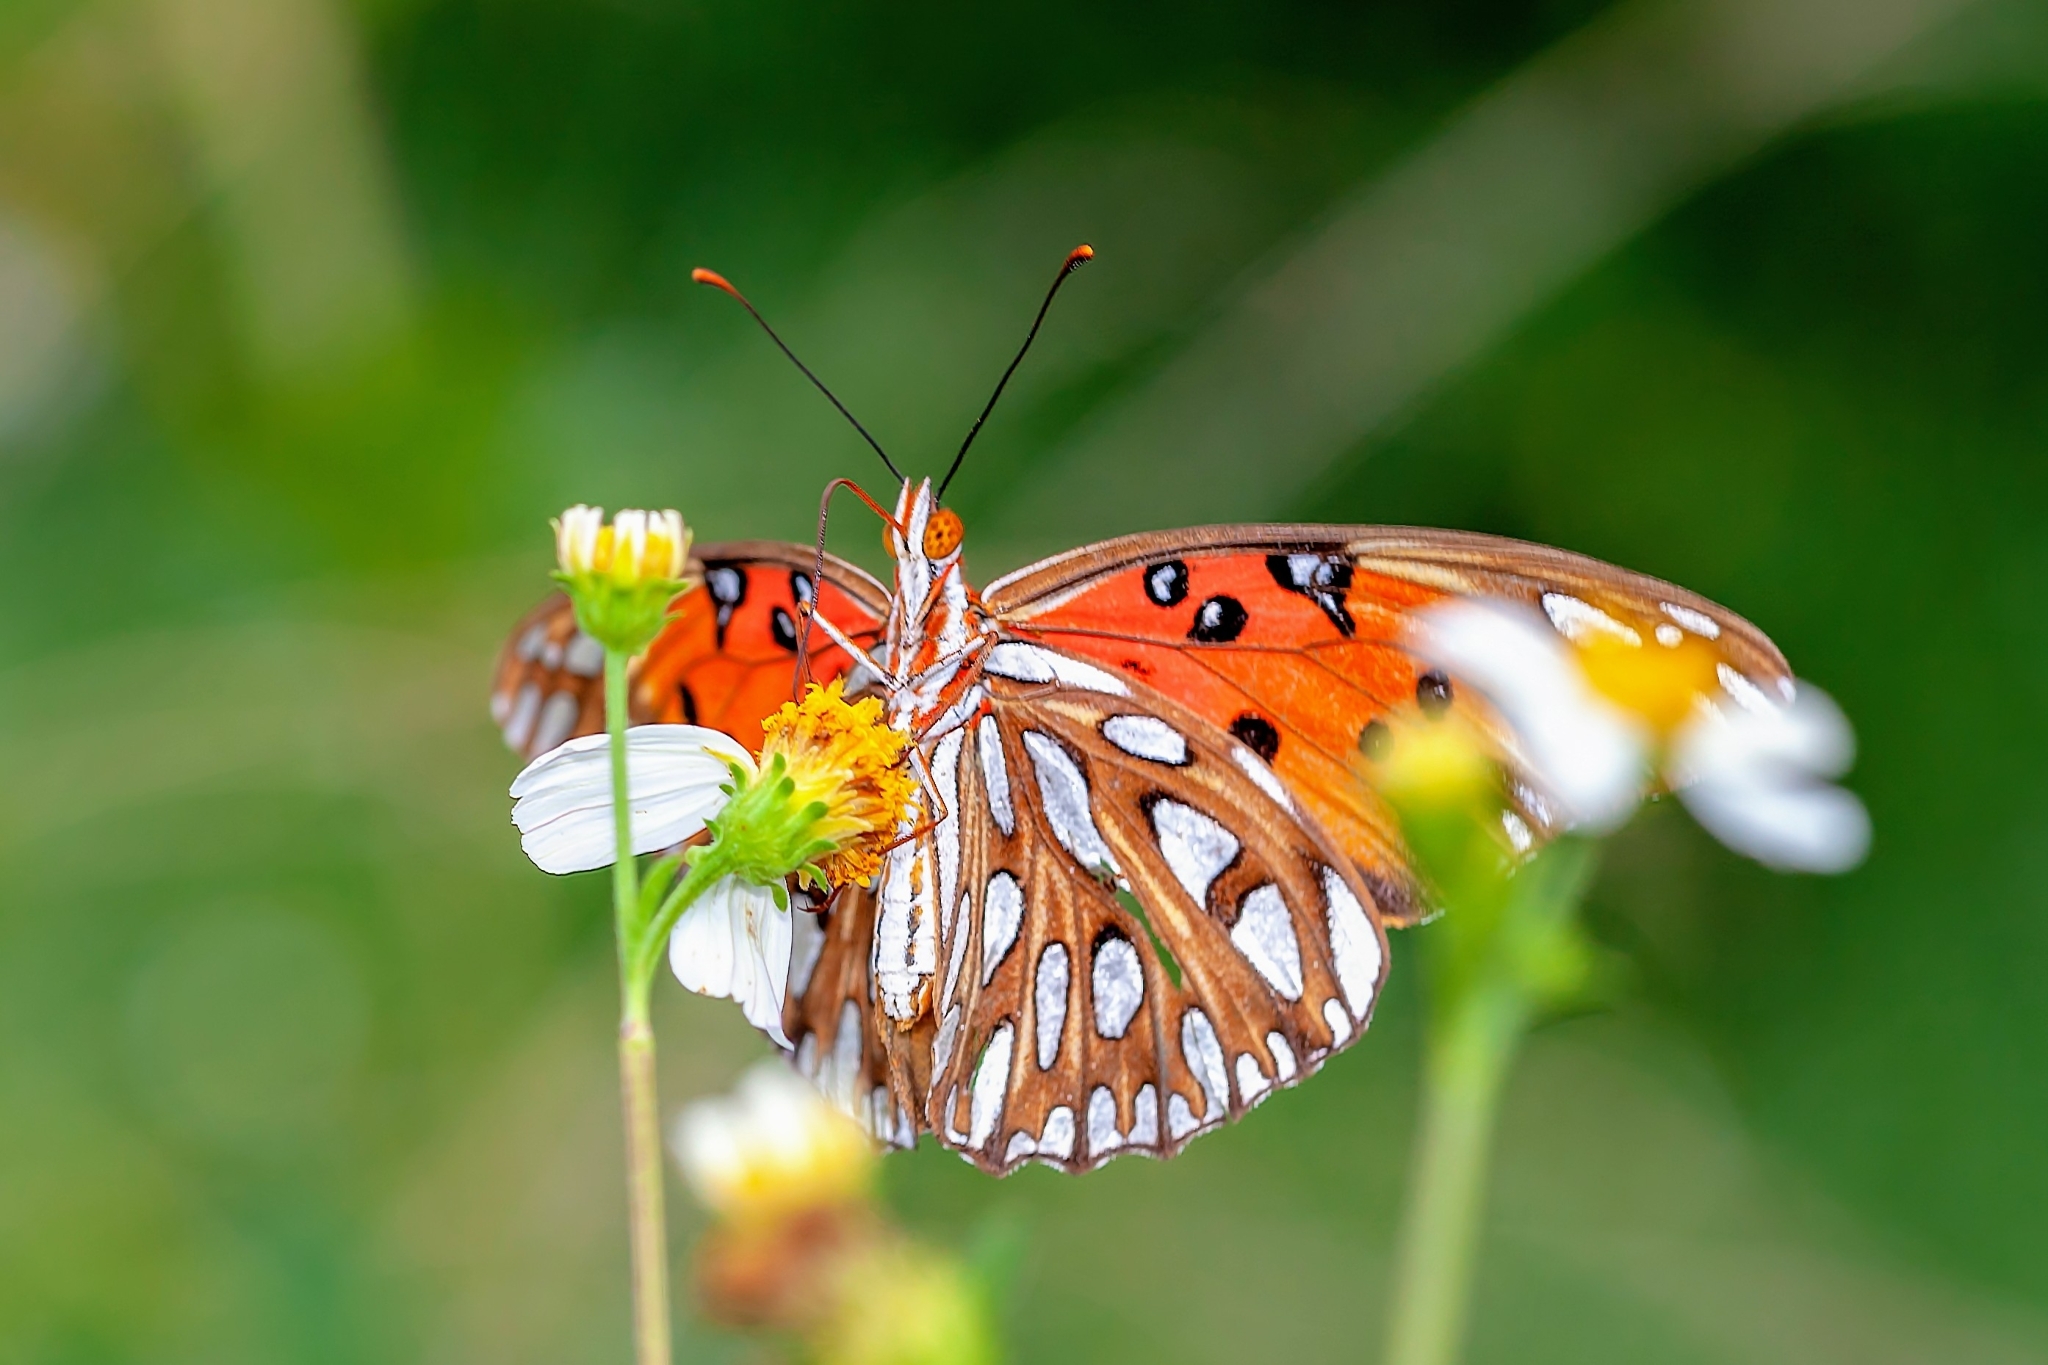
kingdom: Animalia
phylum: Arthropoda
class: Insecta
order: Lepidoptera
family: Nymphalidae
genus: Dione
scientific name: Dione vanillae
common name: Gulf fritillary
